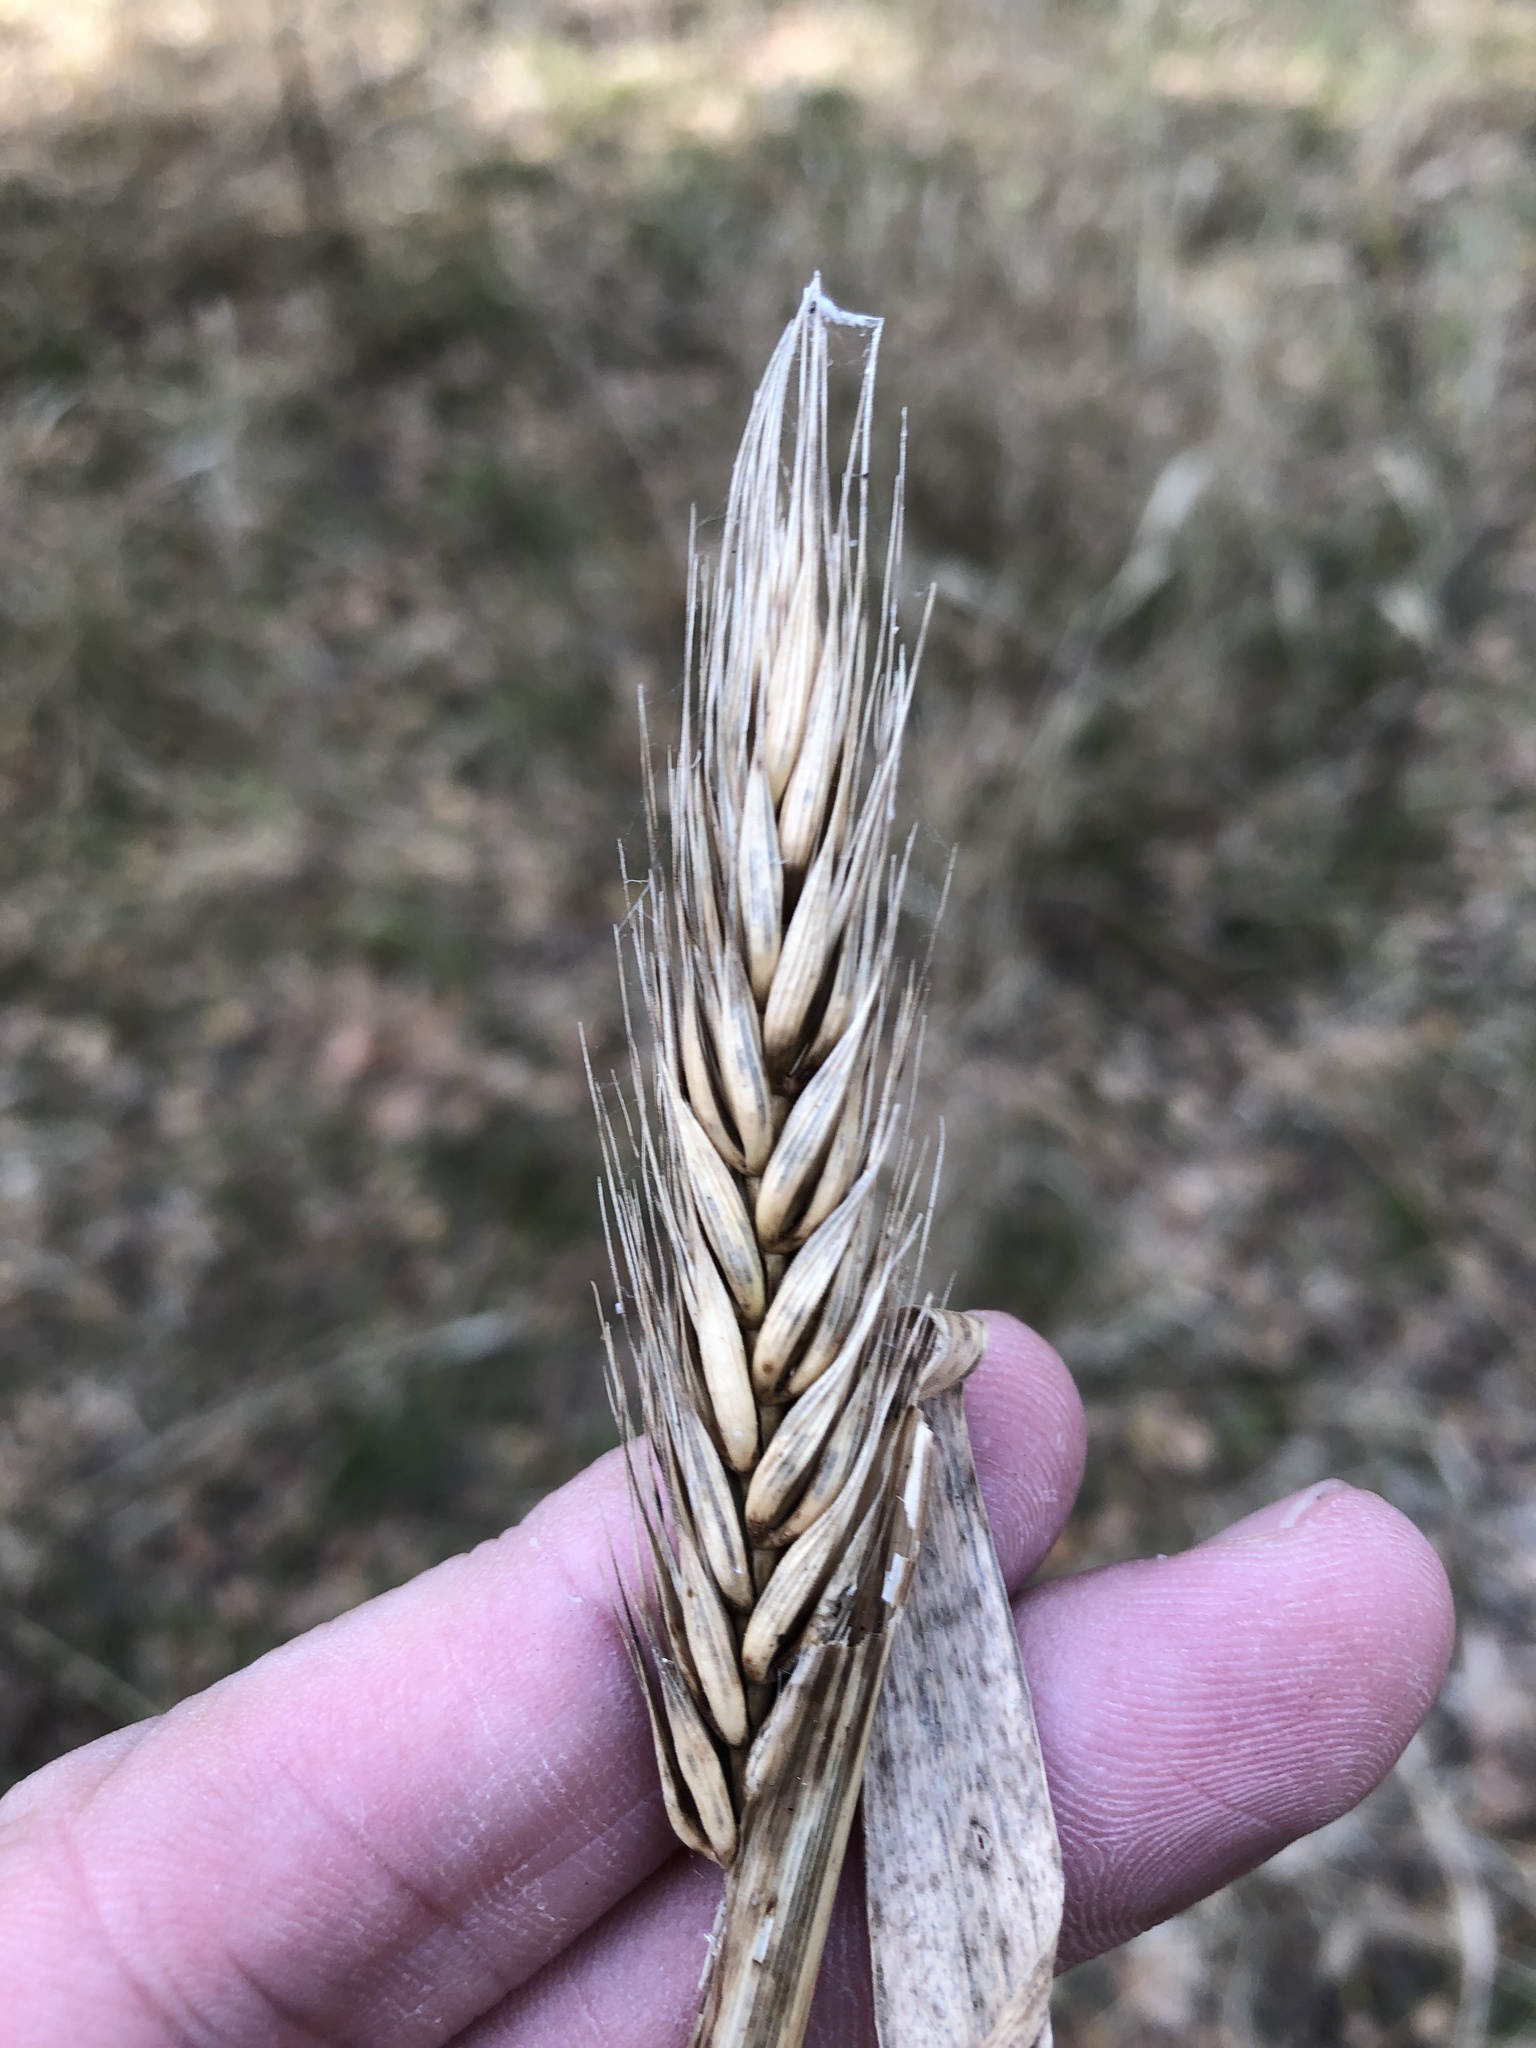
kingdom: Plantae
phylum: Tracheophyta
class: Liliopsida
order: Poales
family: Poaceae
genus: Elymus
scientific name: Elymus virginicus
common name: Common eastern wildrye
